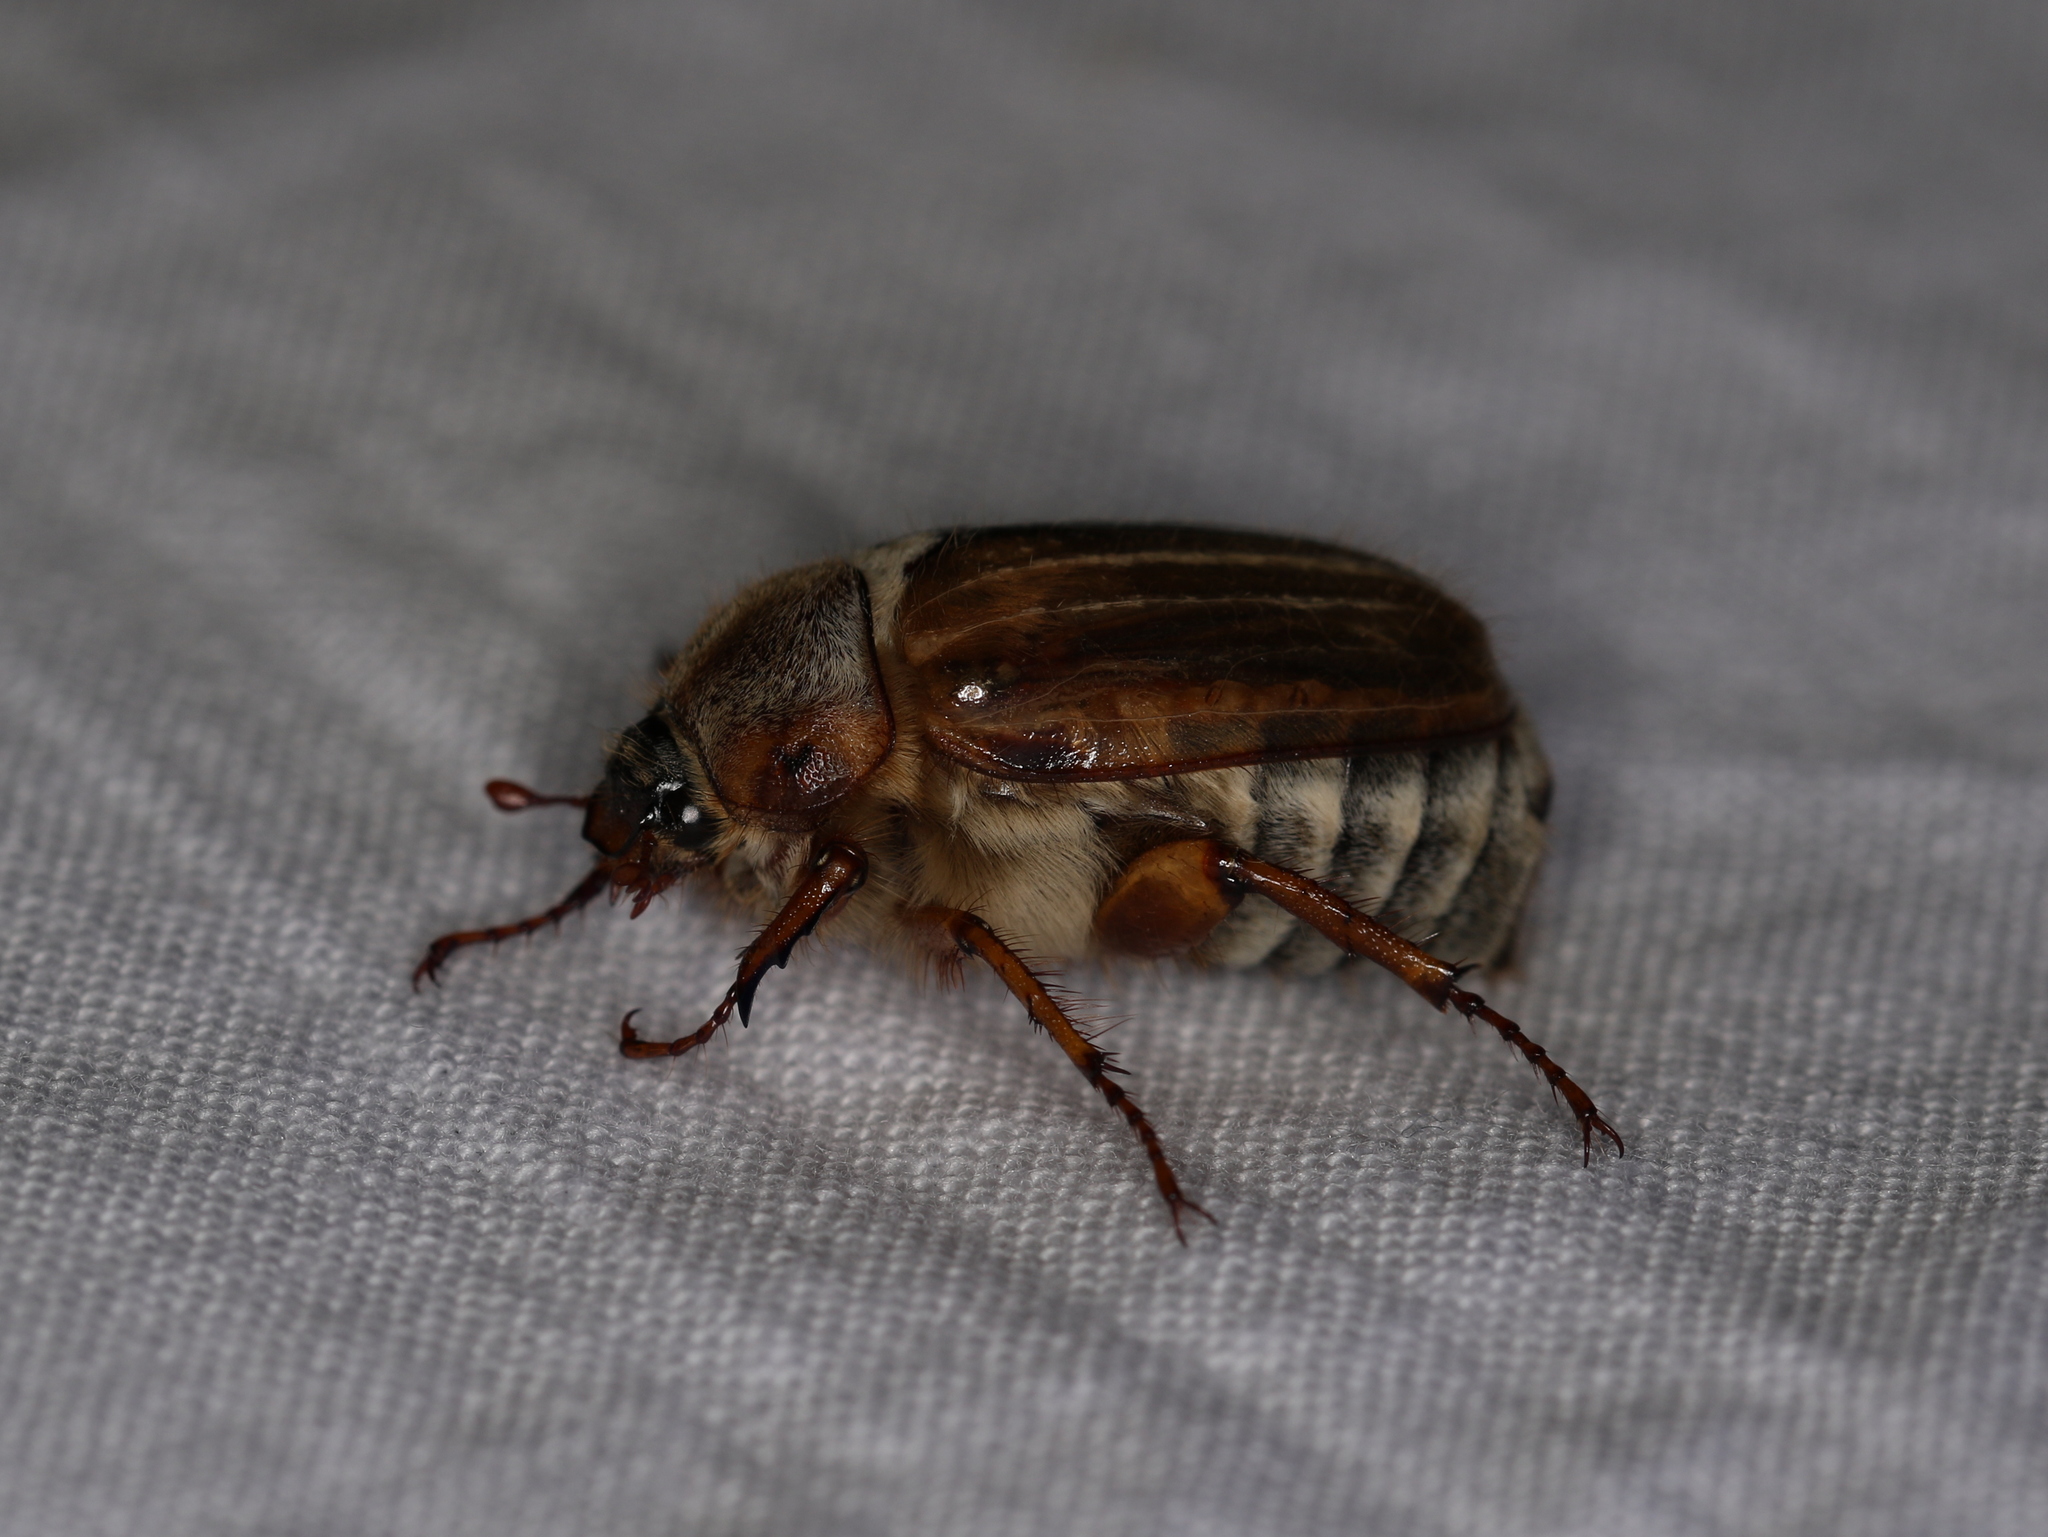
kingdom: Animalia
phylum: Arthropoda
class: Insecta
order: Coleoptera
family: Scarabaeidae
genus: Amphimallon
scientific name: Amphimallon solstitiale
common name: Summer chafer
